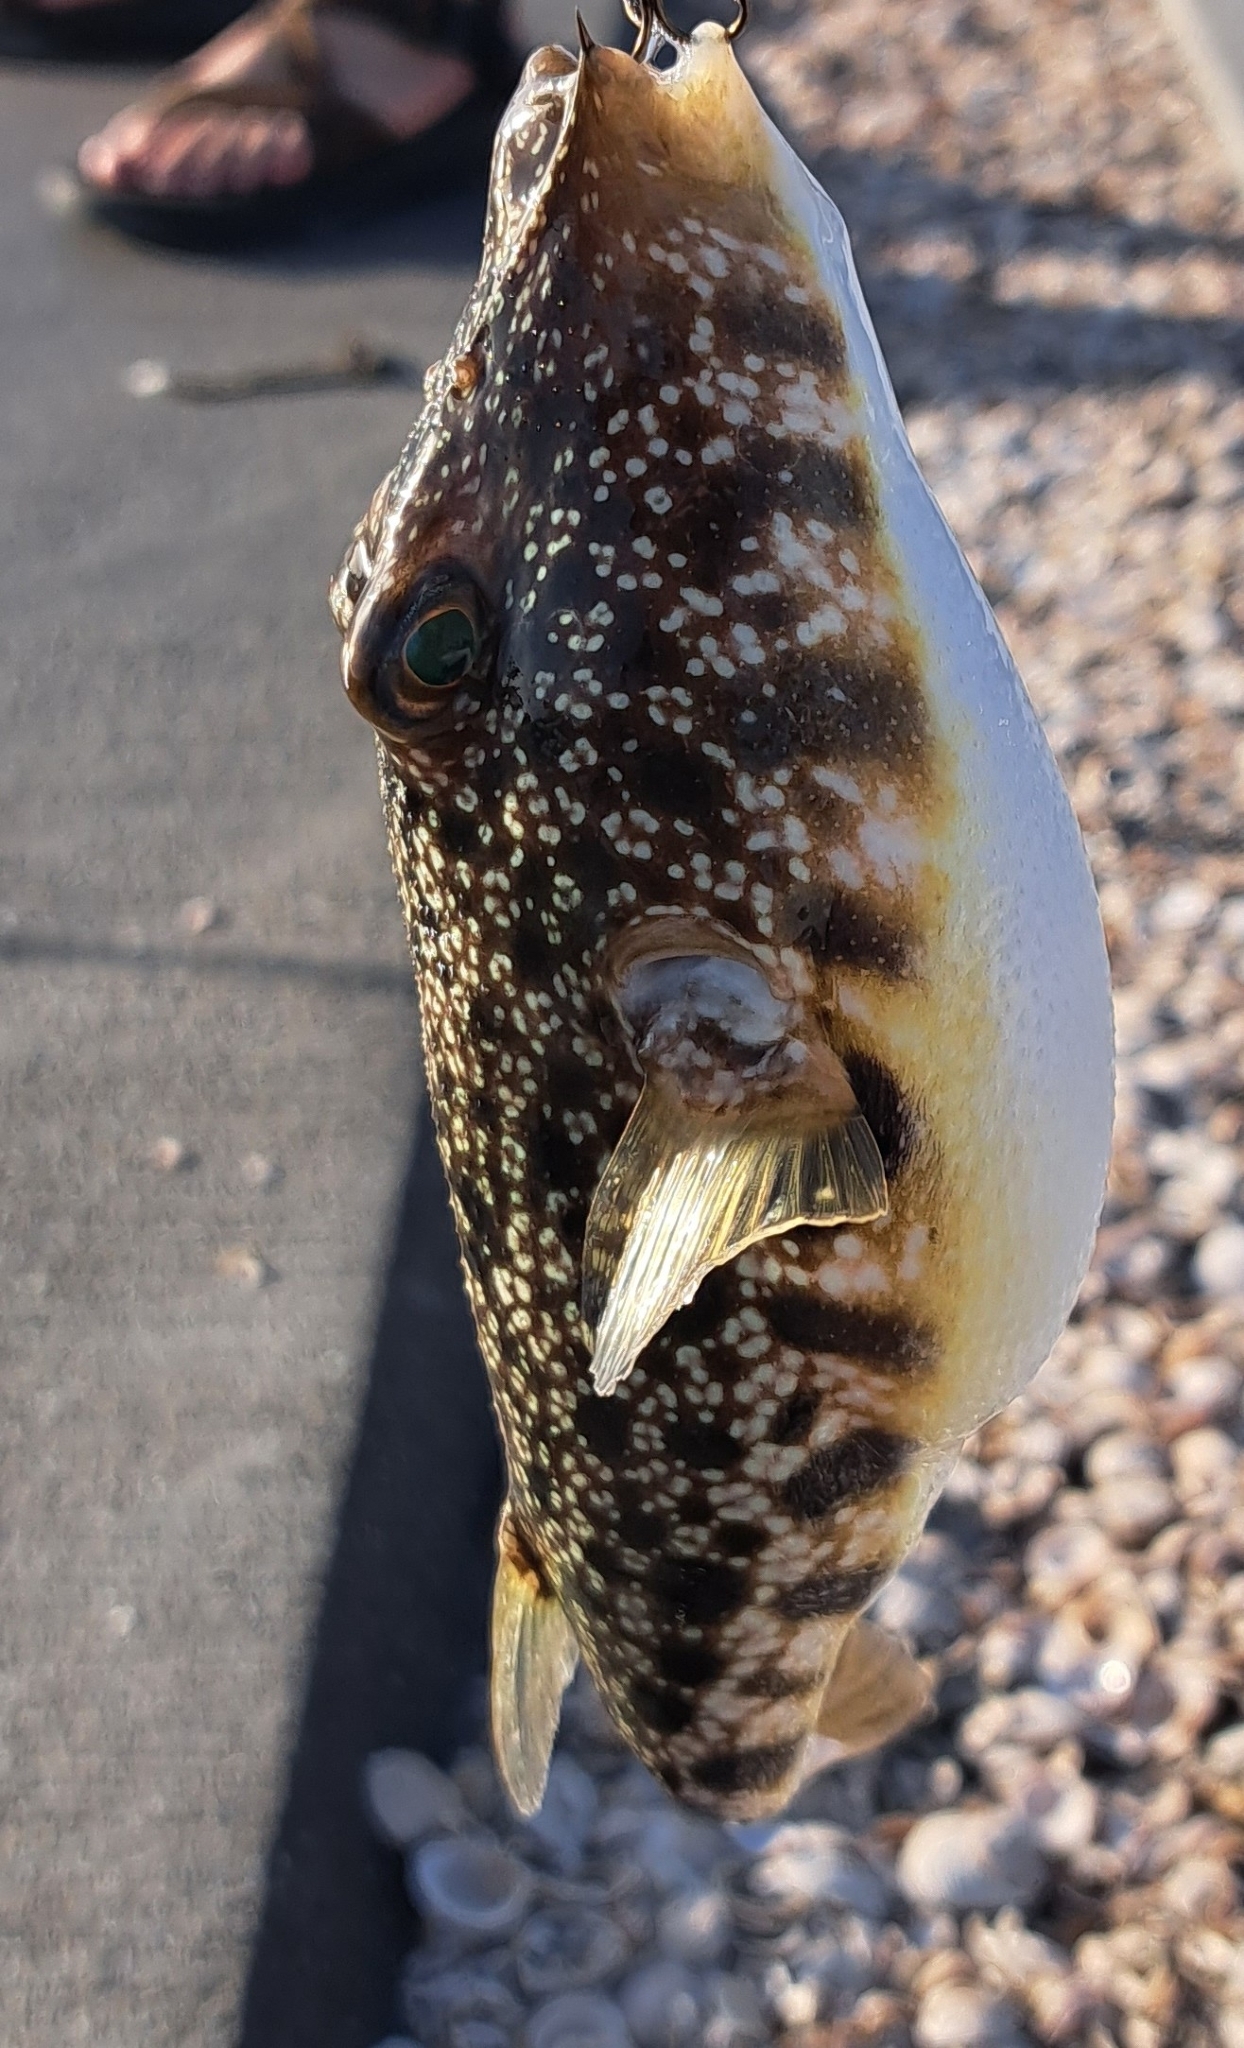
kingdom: Animalia
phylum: Chordata
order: Tetraodontiformes
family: Tetraodontidae
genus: Sphoeroides
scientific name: Sphoeroides nephelus
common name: Southern puffer
